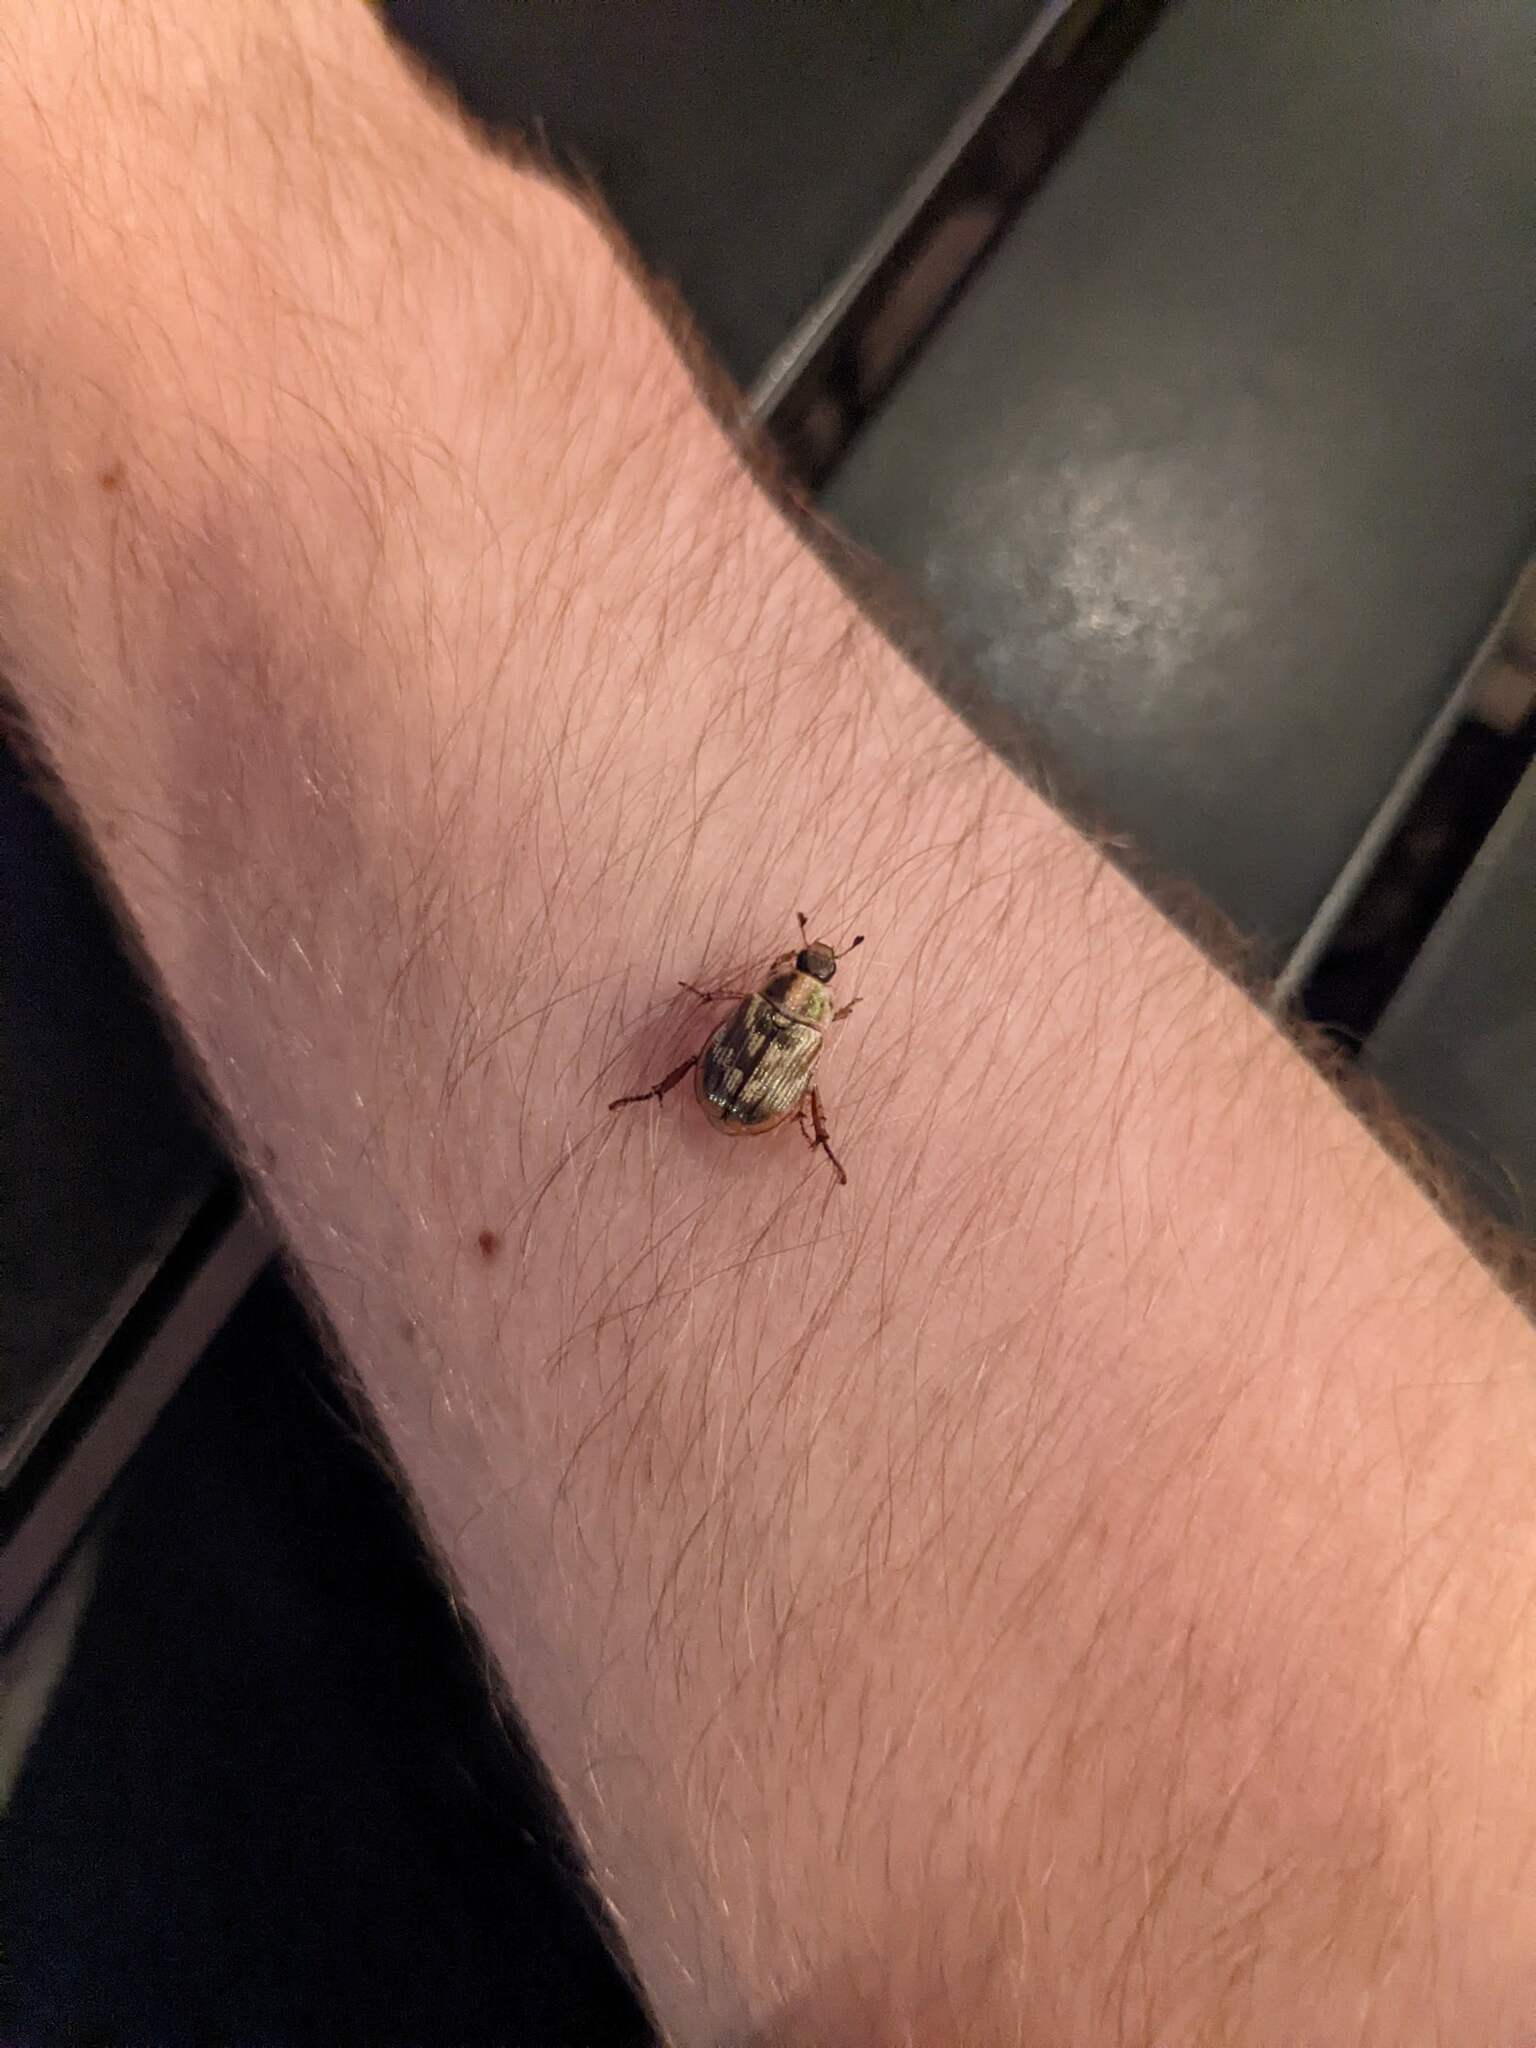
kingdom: Animalia
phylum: Arthropoda
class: Insecta
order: Coleoptera
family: Scarabaeidae
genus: Exomala
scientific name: Exomala orientalis
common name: Oriental beetle
